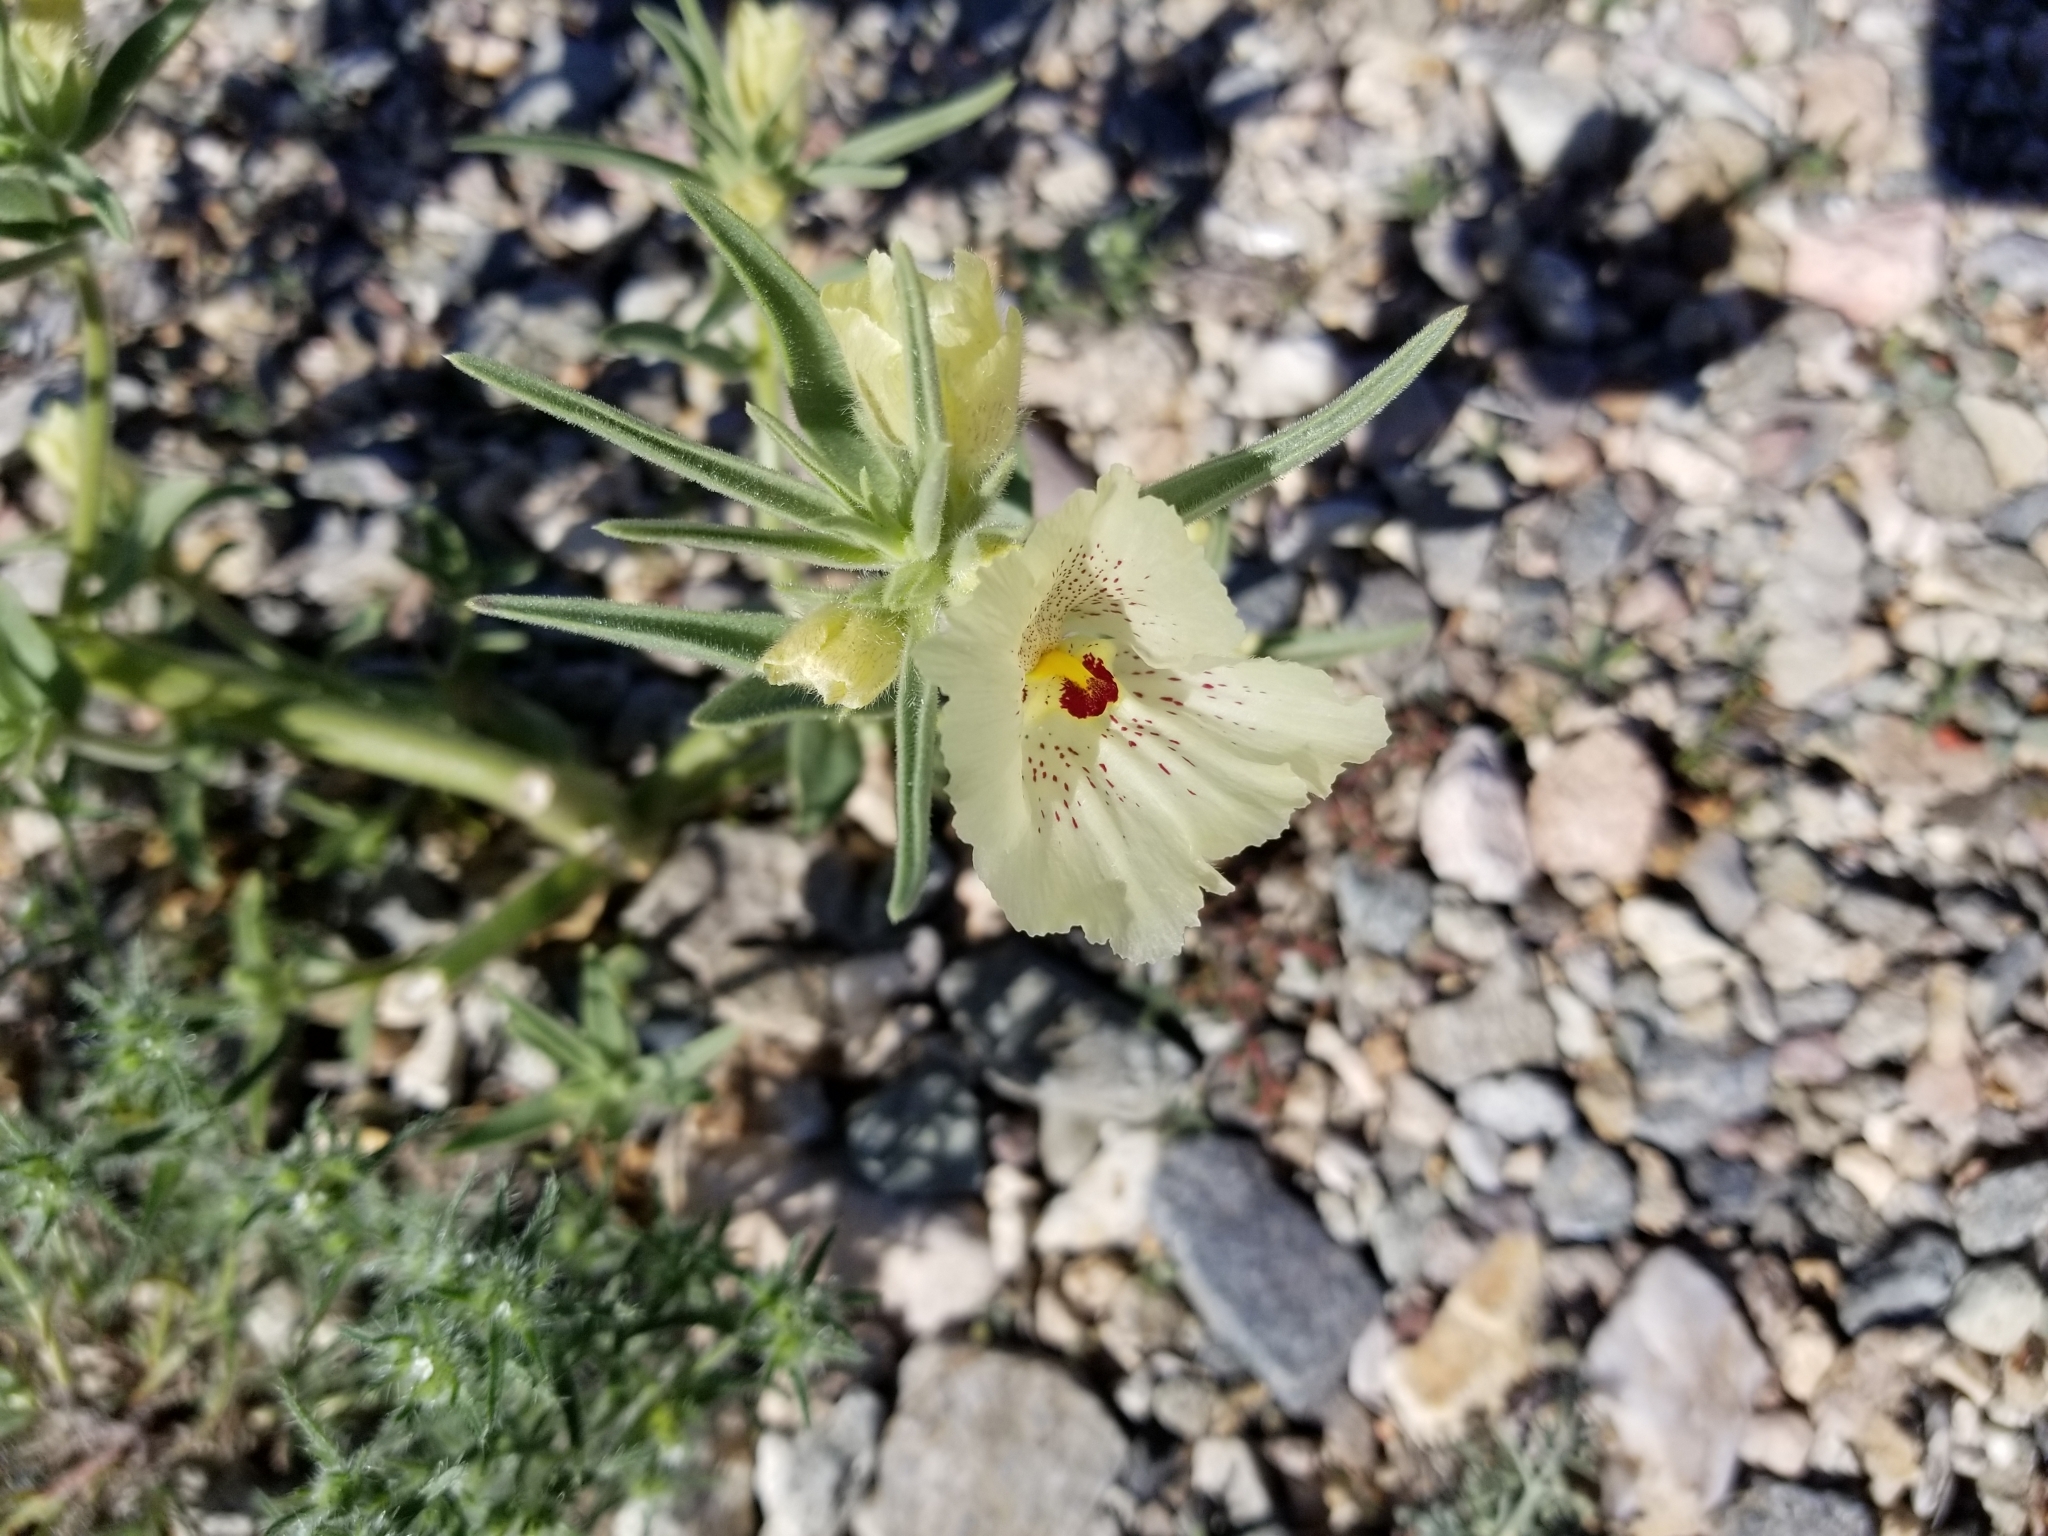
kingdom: Plantae
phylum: Tracheophyta
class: Magnoliopsida
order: Lamiales
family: Plantaginaceae
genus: Mohavea
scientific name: Mohavea confertiflora
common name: Ghost flower
